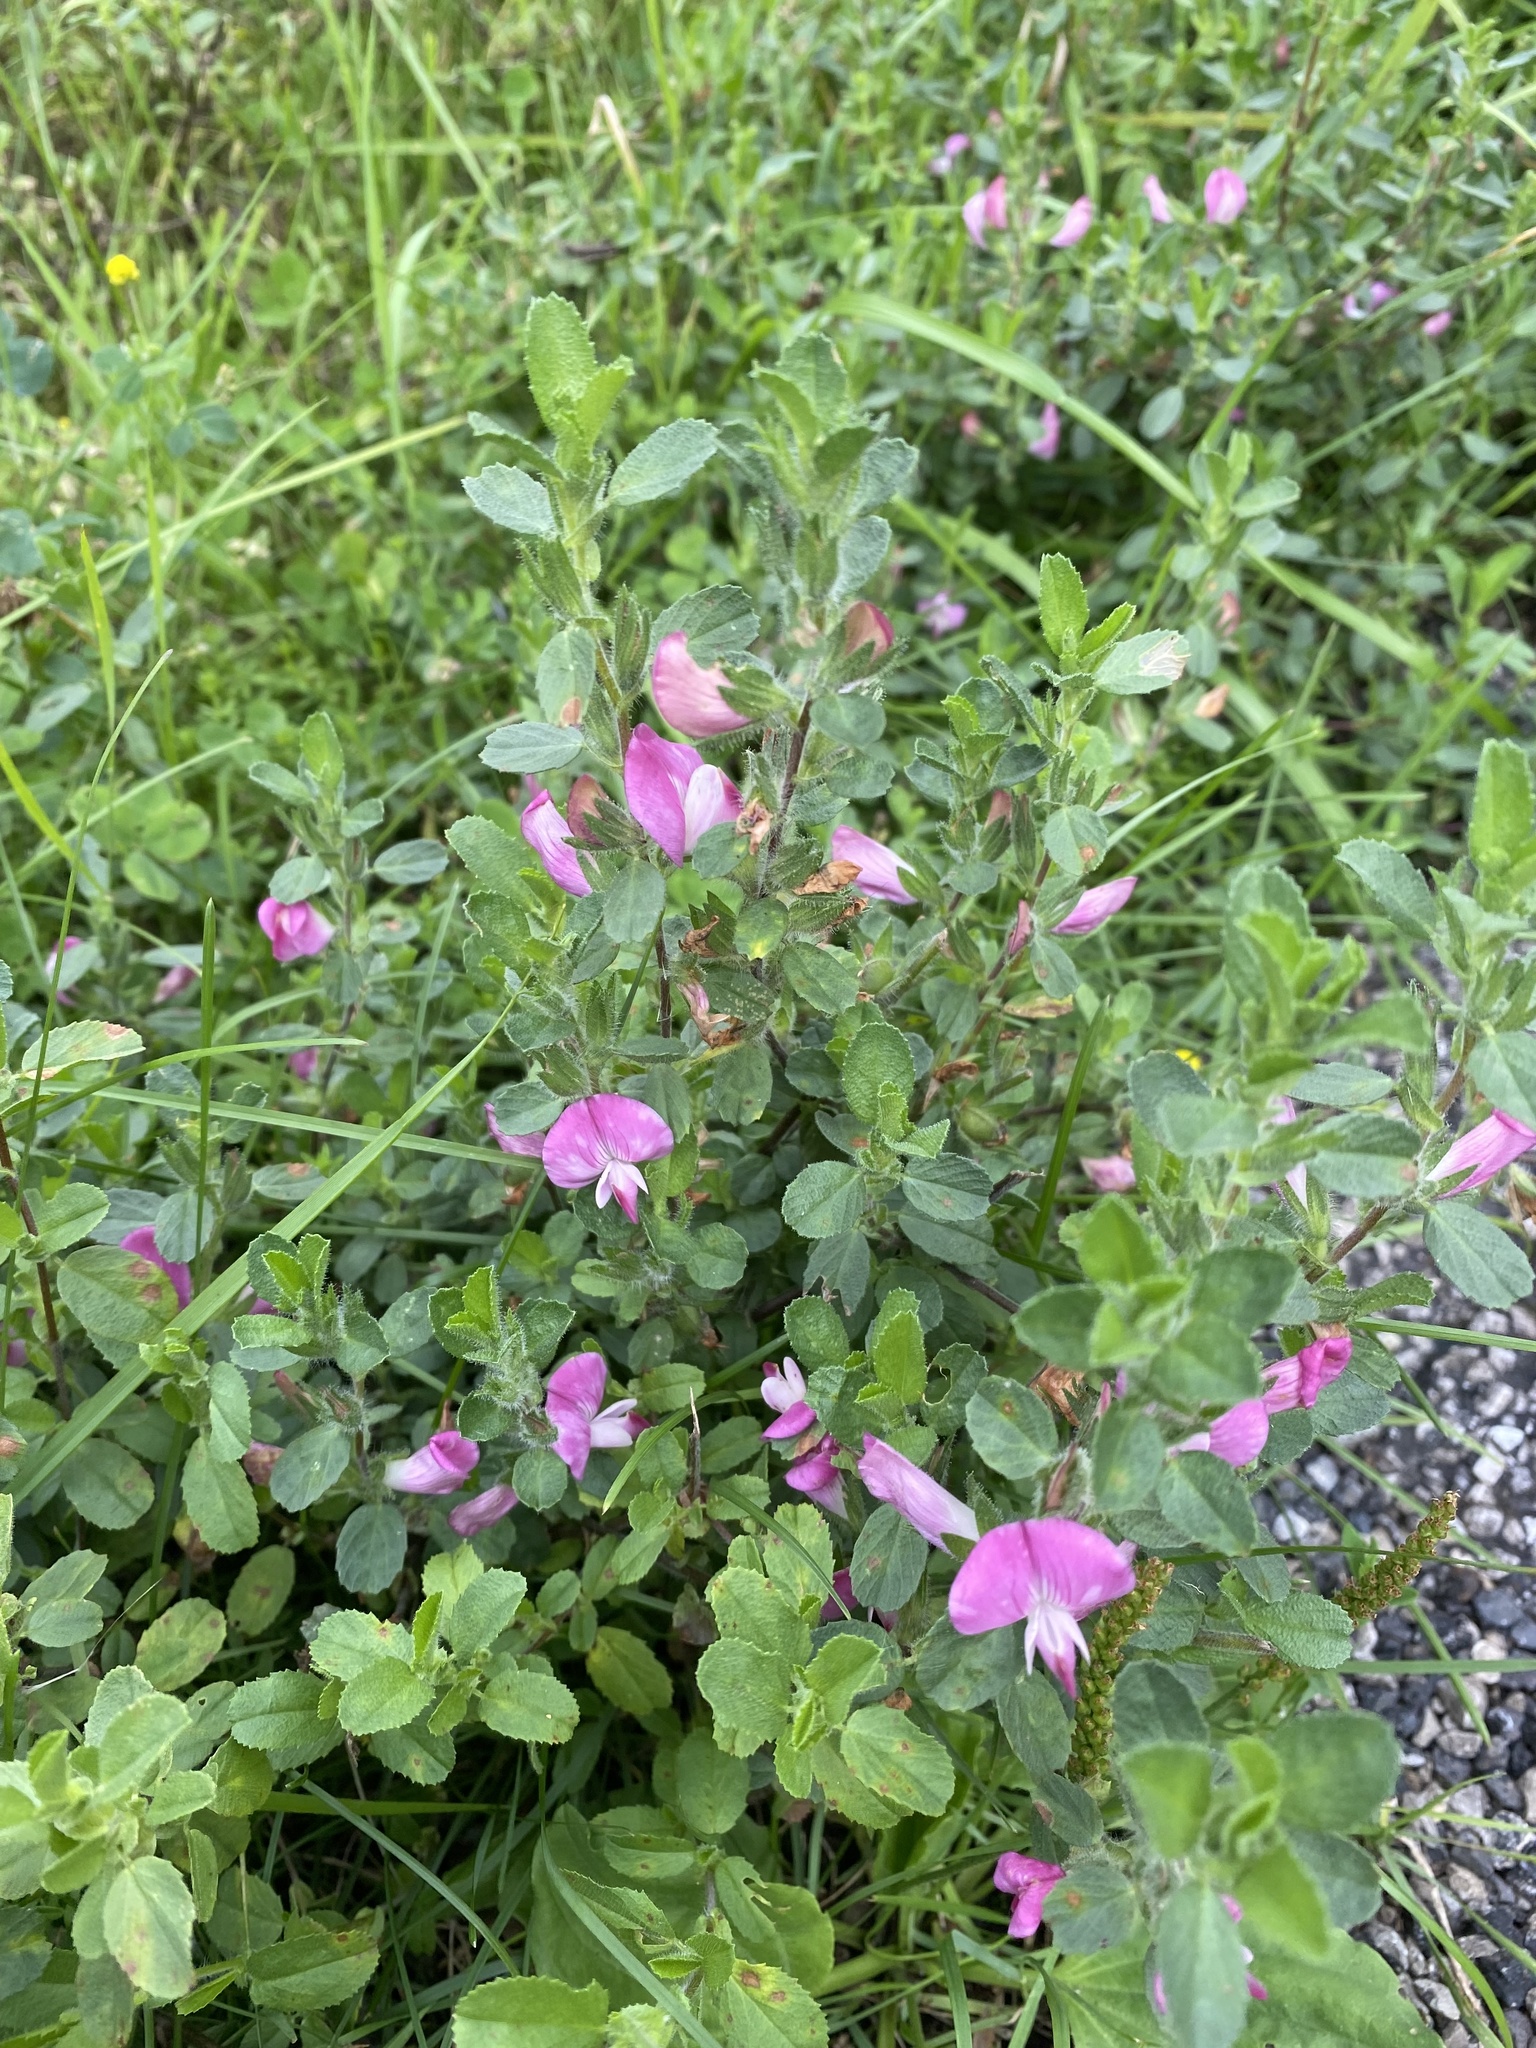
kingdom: Plantae
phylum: Tracheophyta
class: Magnoliopsida
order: Fabales
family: Fabaceae
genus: Ononis
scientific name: Ononis spinosa
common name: Spiny restharrow
